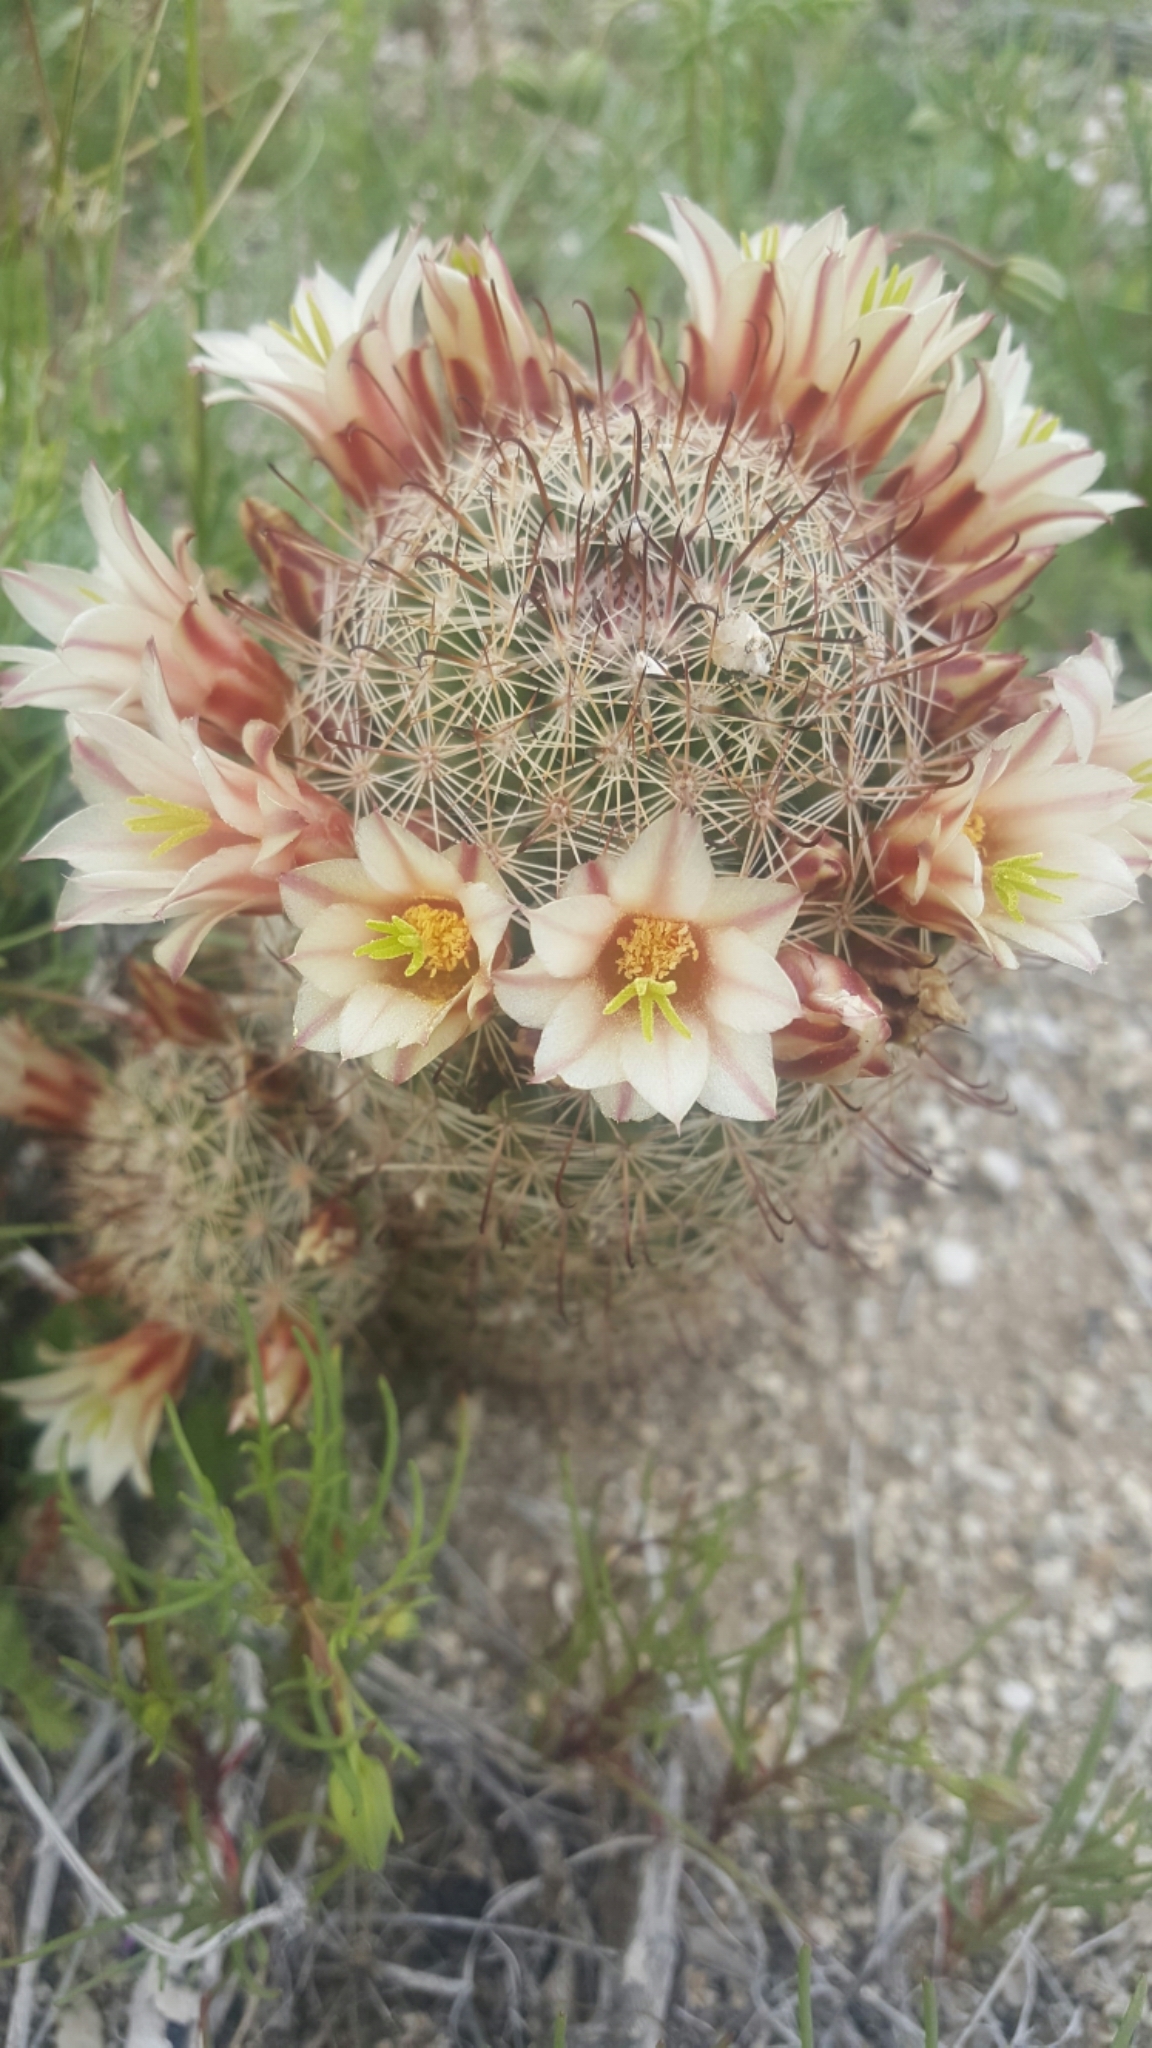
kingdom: Plantae
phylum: Tracheophyta
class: Magnoliopsida
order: Caryophyllales
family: Cactaceae
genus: Cochemiea
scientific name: Cochemiea dioica
